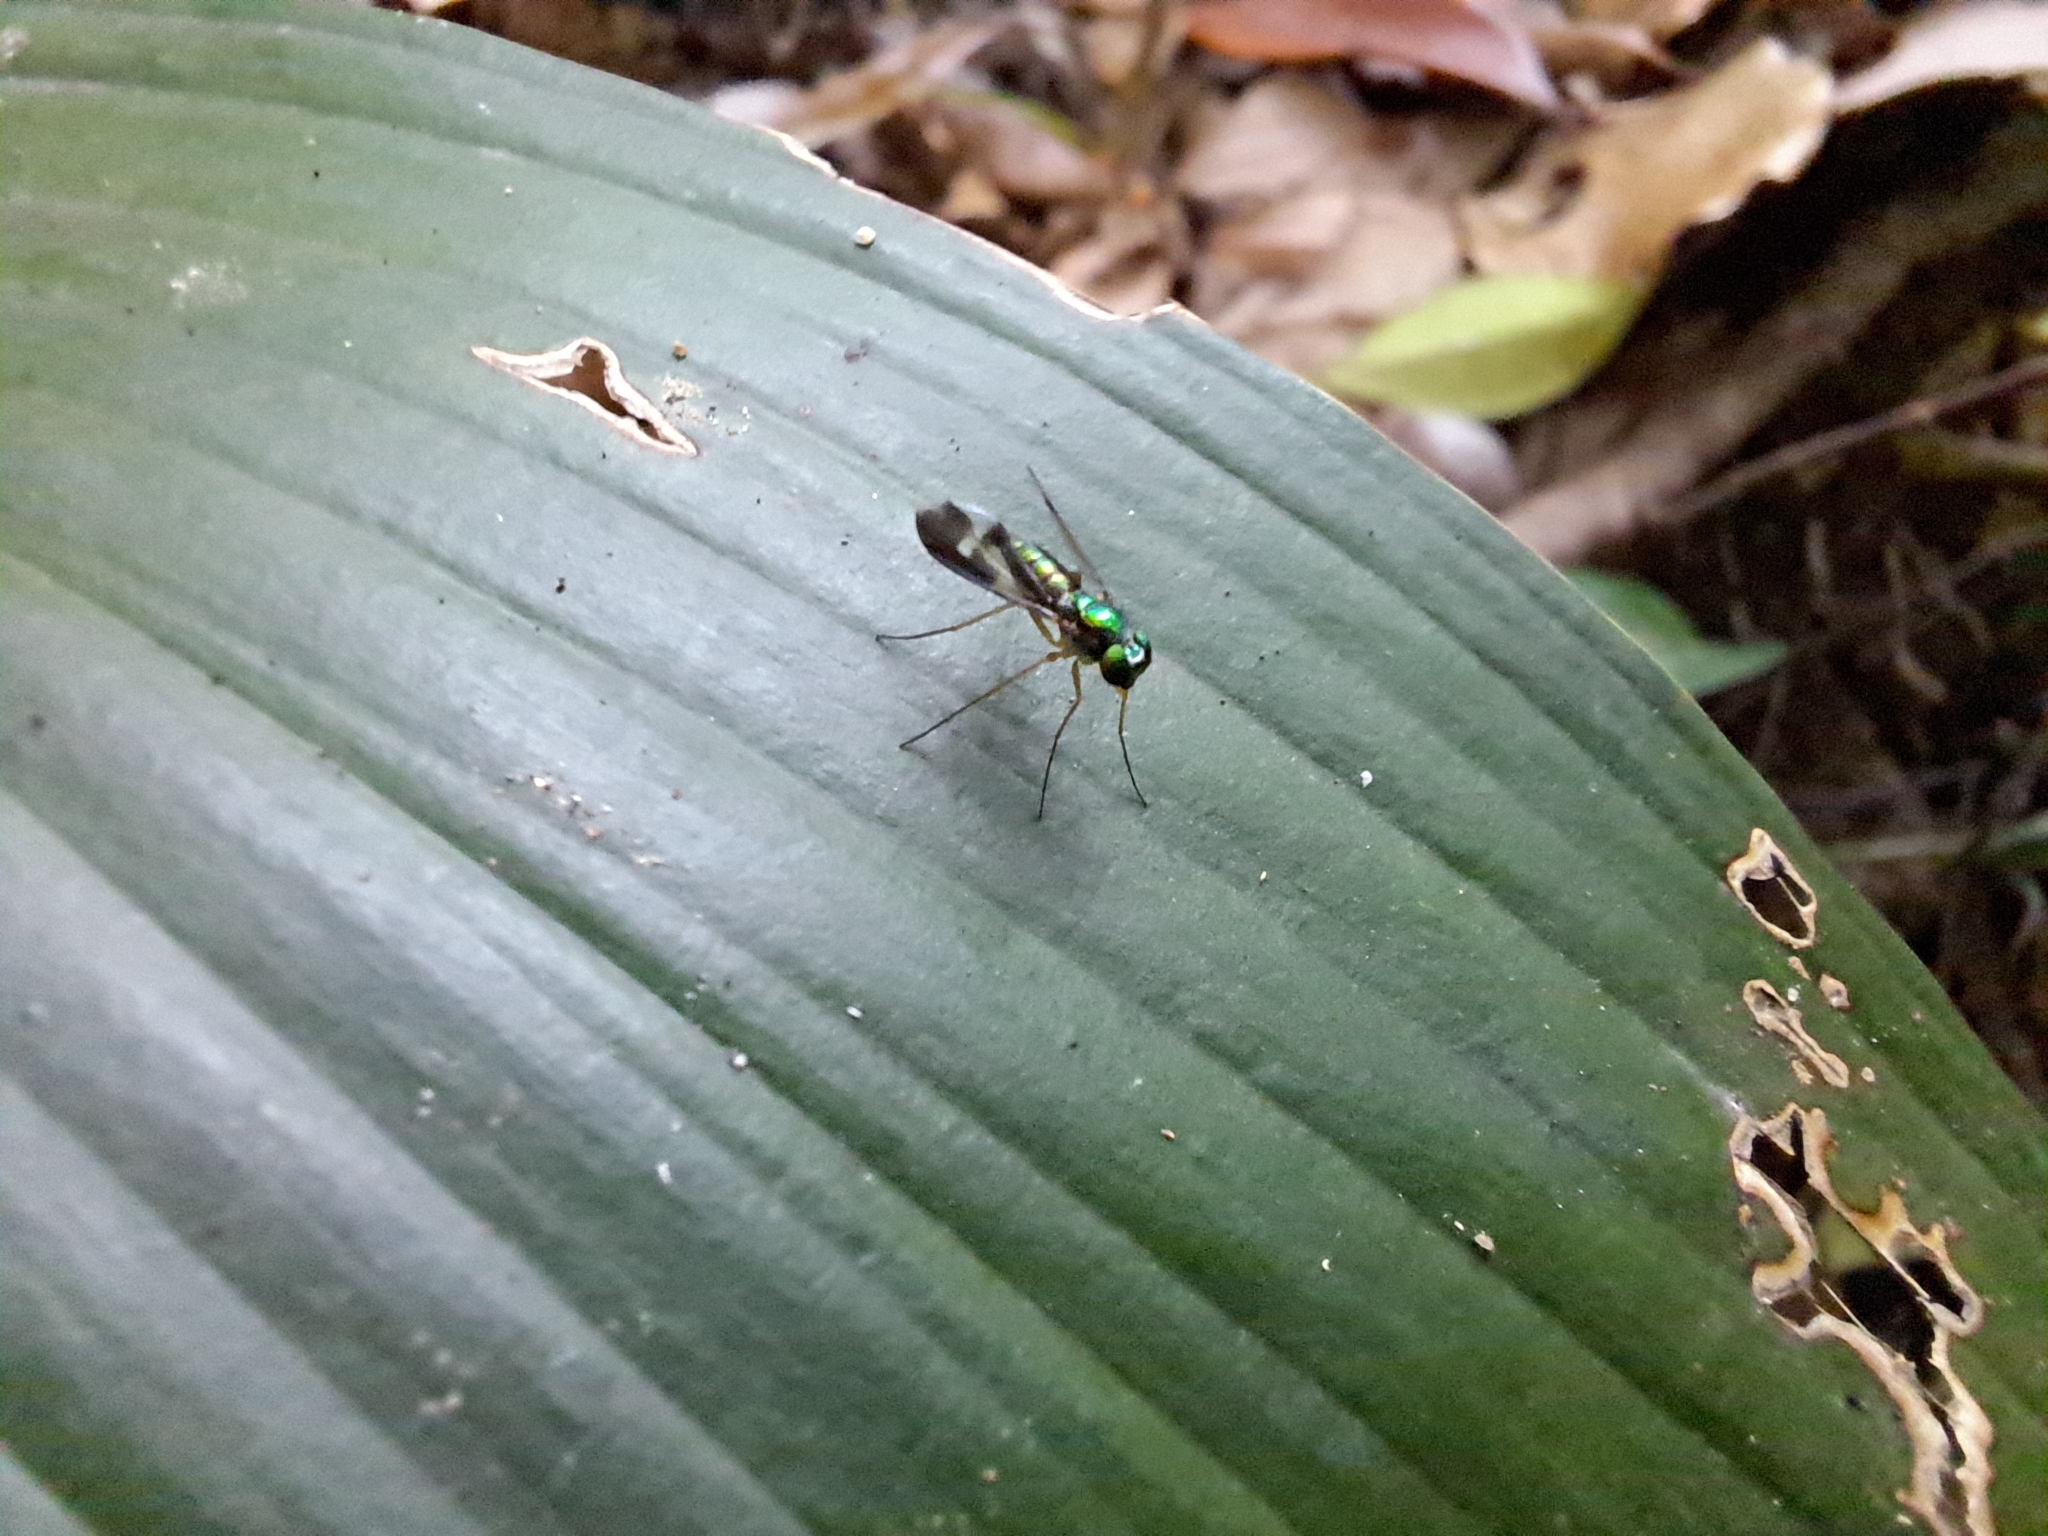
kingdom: Animalia
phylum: Arthropoda
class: Insecta
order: Diptera
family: Dolichopodidae
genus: Condylostylus
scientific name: Condylostylus nebulosus
